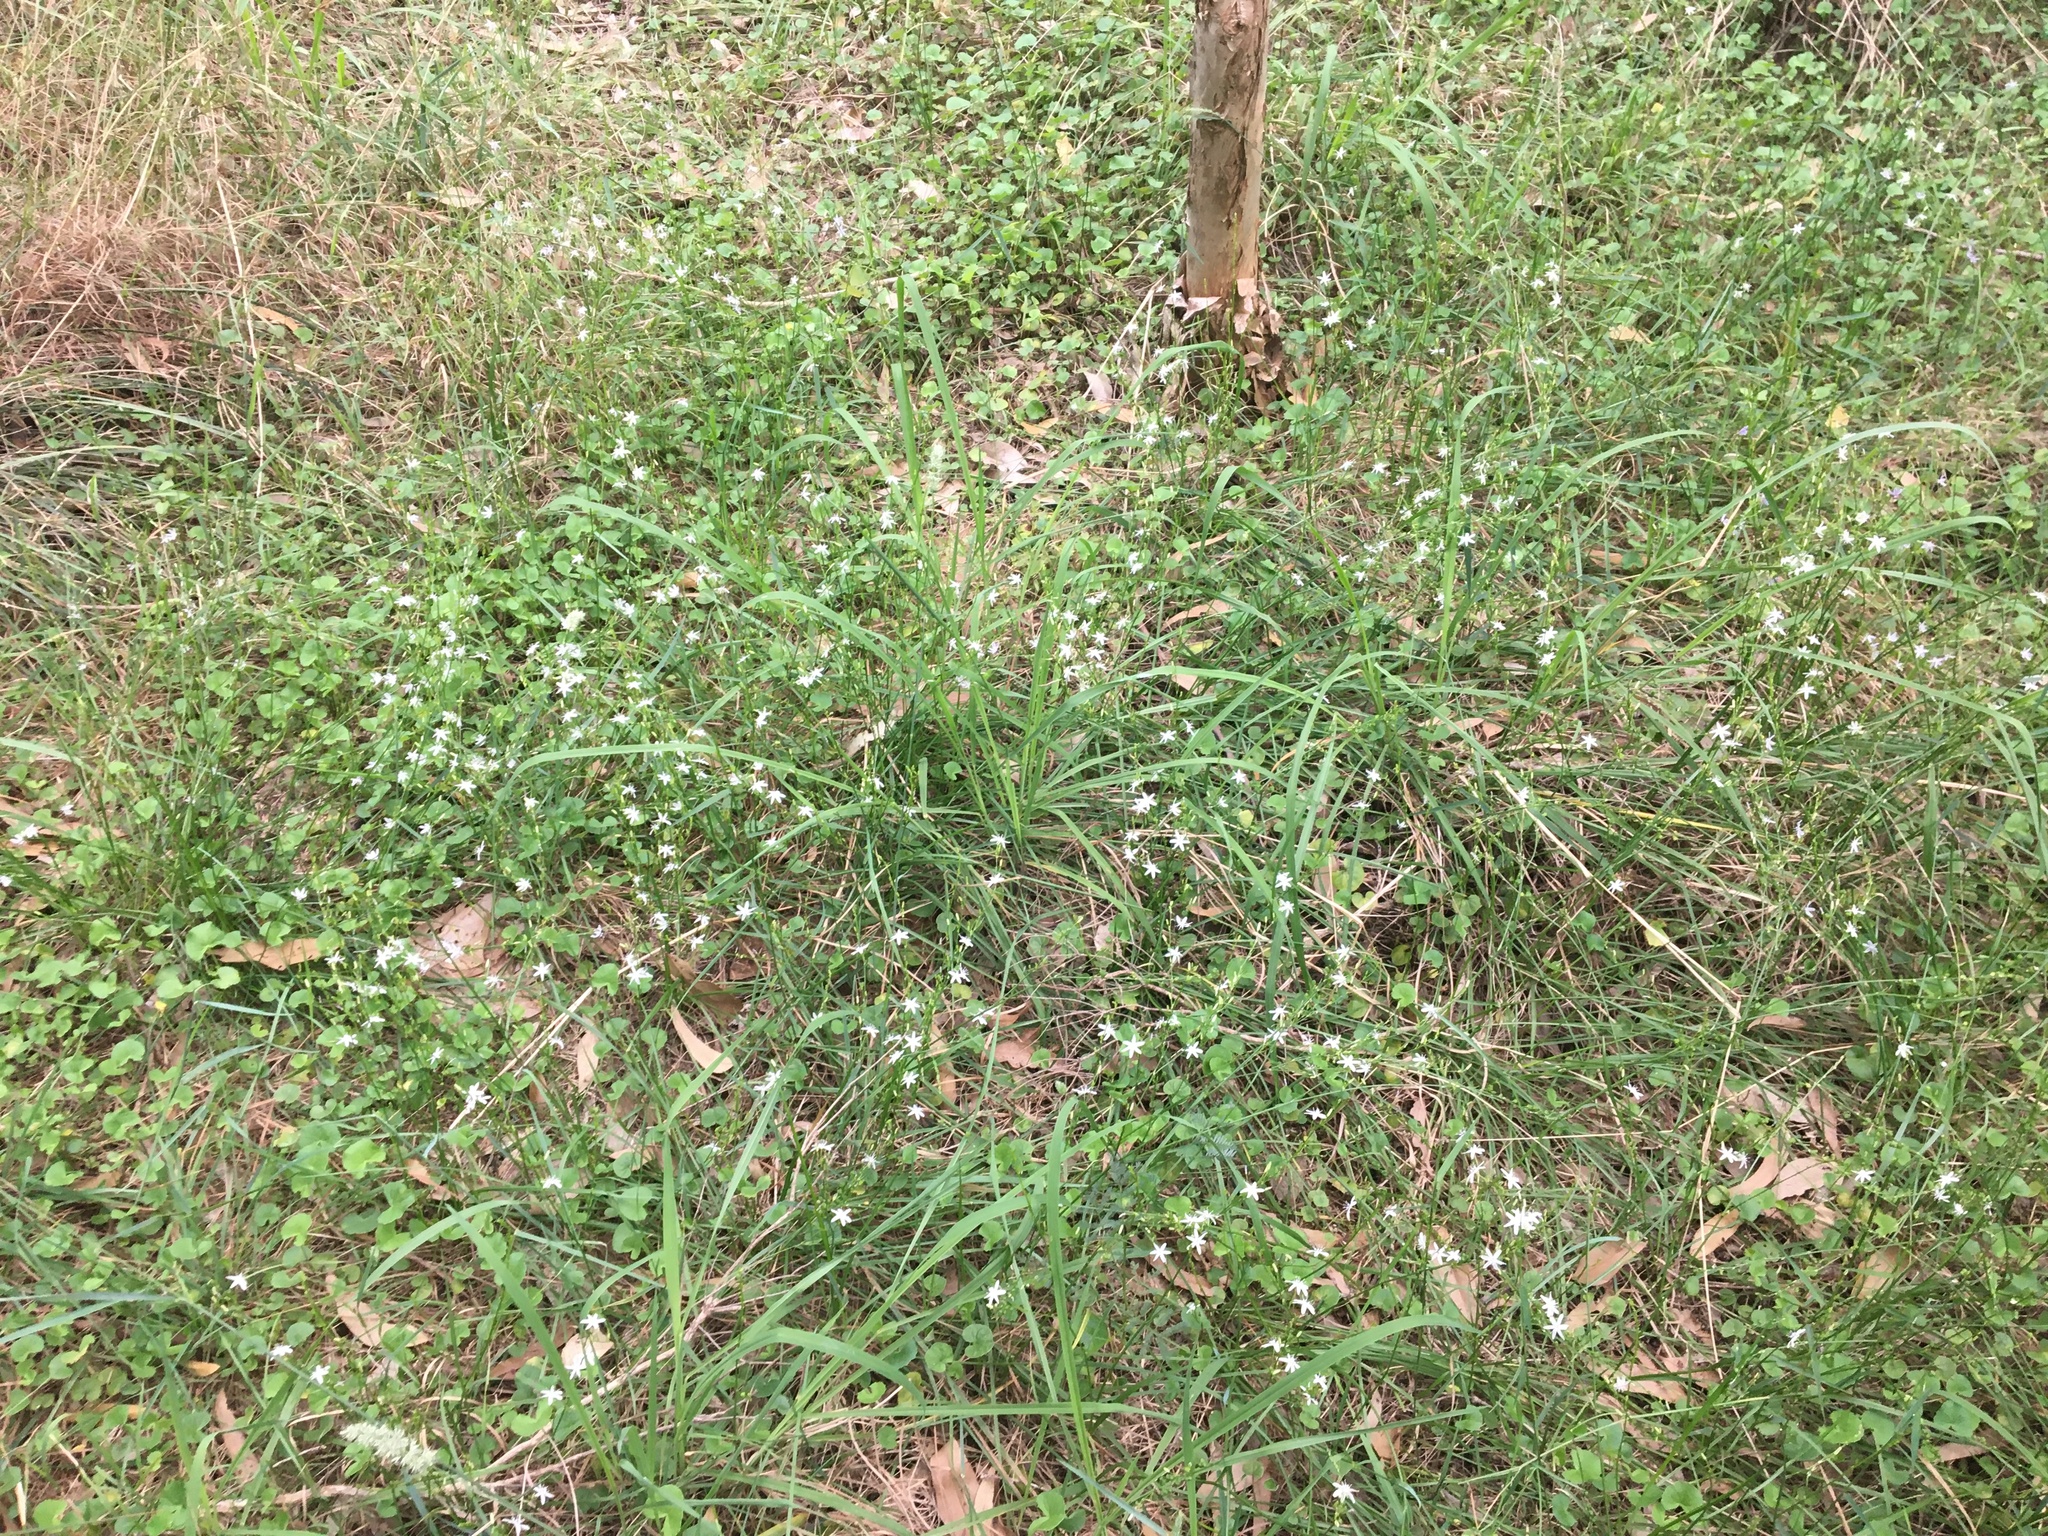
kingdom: Plantae
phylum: Tracheophyta
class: Liliopsida
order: Asparagales
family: Asphodelaceae
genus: Caesia
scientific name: Caesia parviflora
